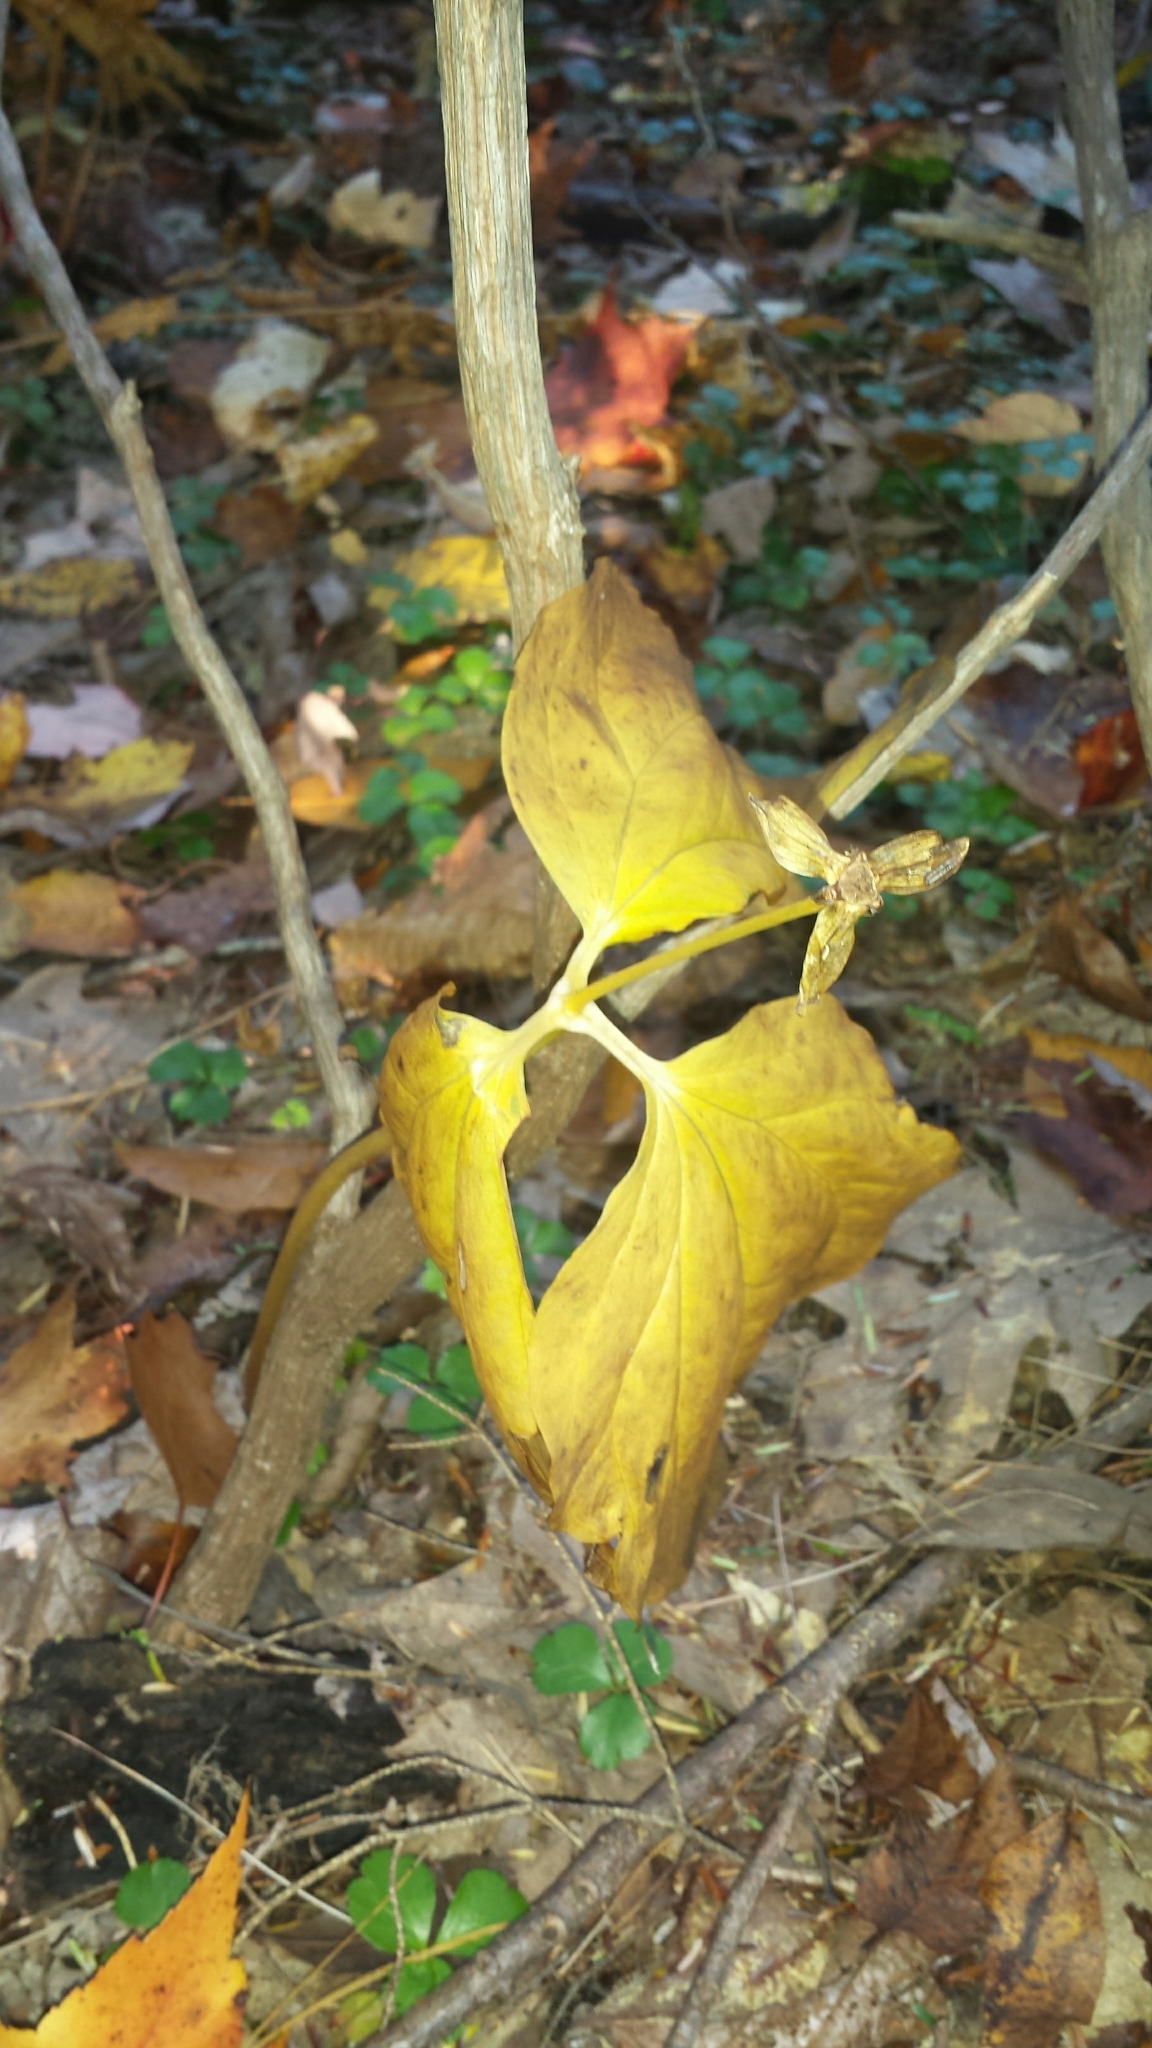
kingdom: Plantae
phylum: Tracheophyta
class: Liliopsida
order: Liliales
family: Melanthiaceae
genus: Trillium
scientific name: Trillium undulatum
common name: Paint trillium
